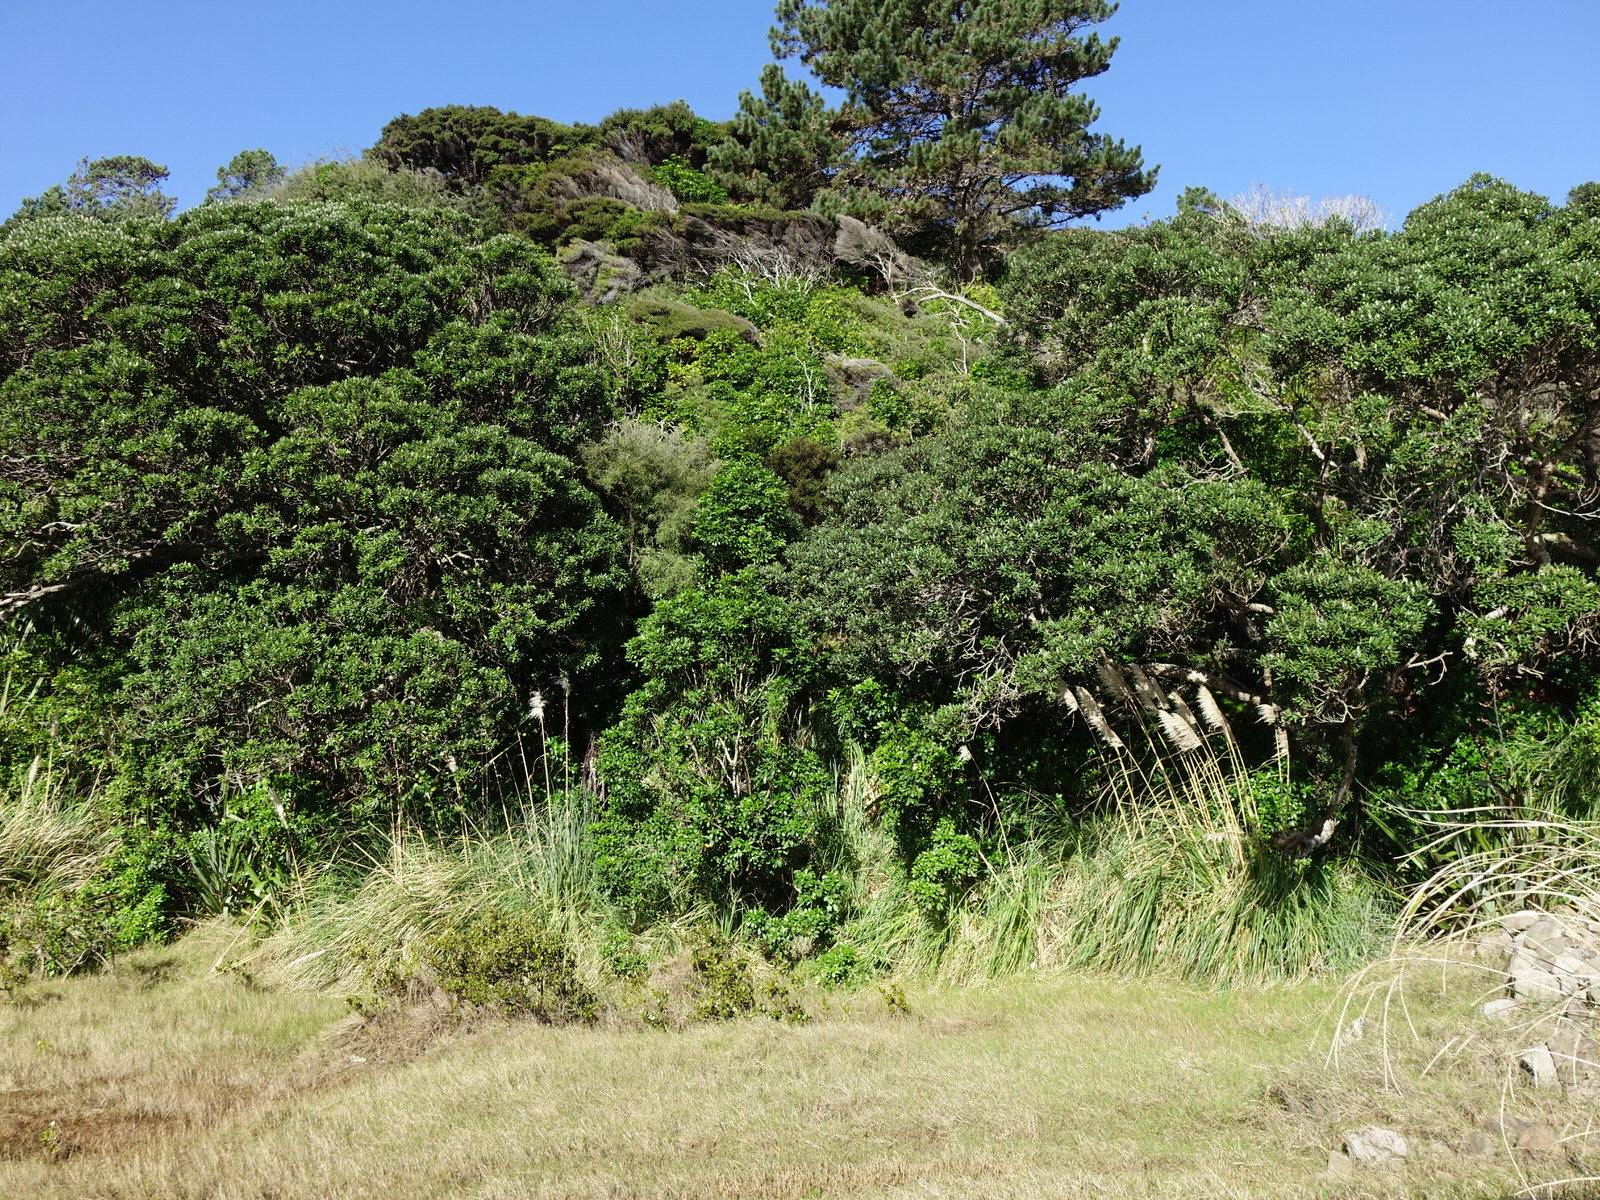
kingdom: Animalia
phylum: Arthropoda
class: Insecta
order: Lepidoptera
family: Nymphalidae
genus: Danaus
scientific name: Danaus plexippus
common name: Monarch
